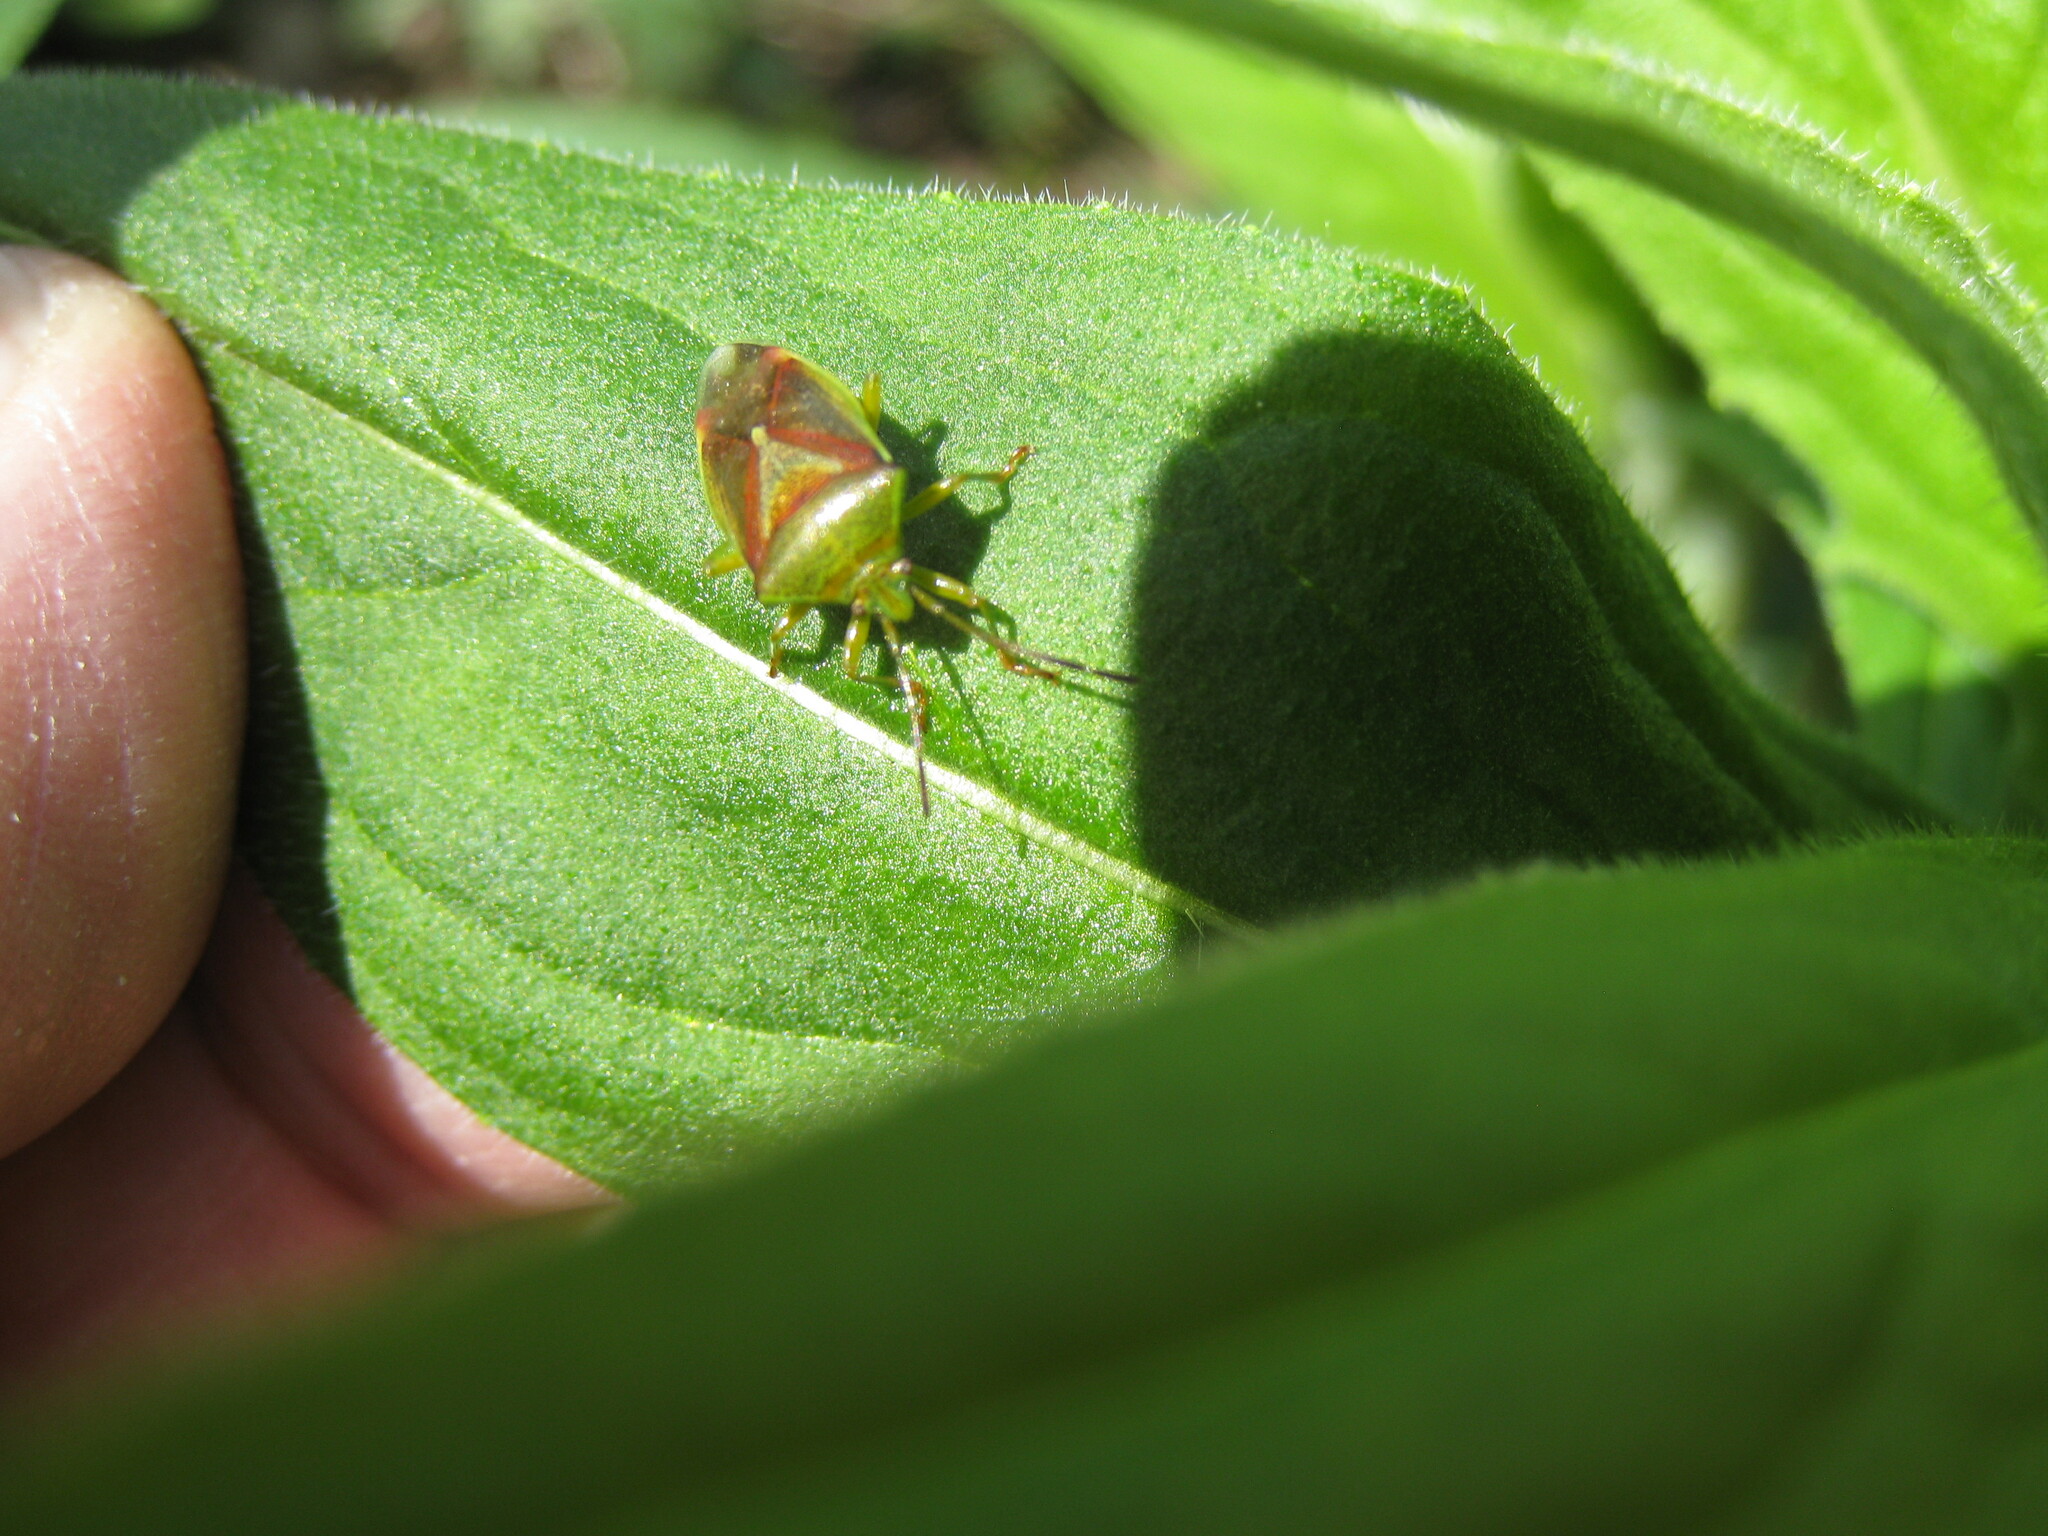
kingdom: Animalia
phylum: Arthropoda
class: Insecta
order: Hemiptera
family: Acanthosomatidae
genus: Elasmostethus
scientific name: Elasmostethus interstinctus
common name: Birch shieldbug
